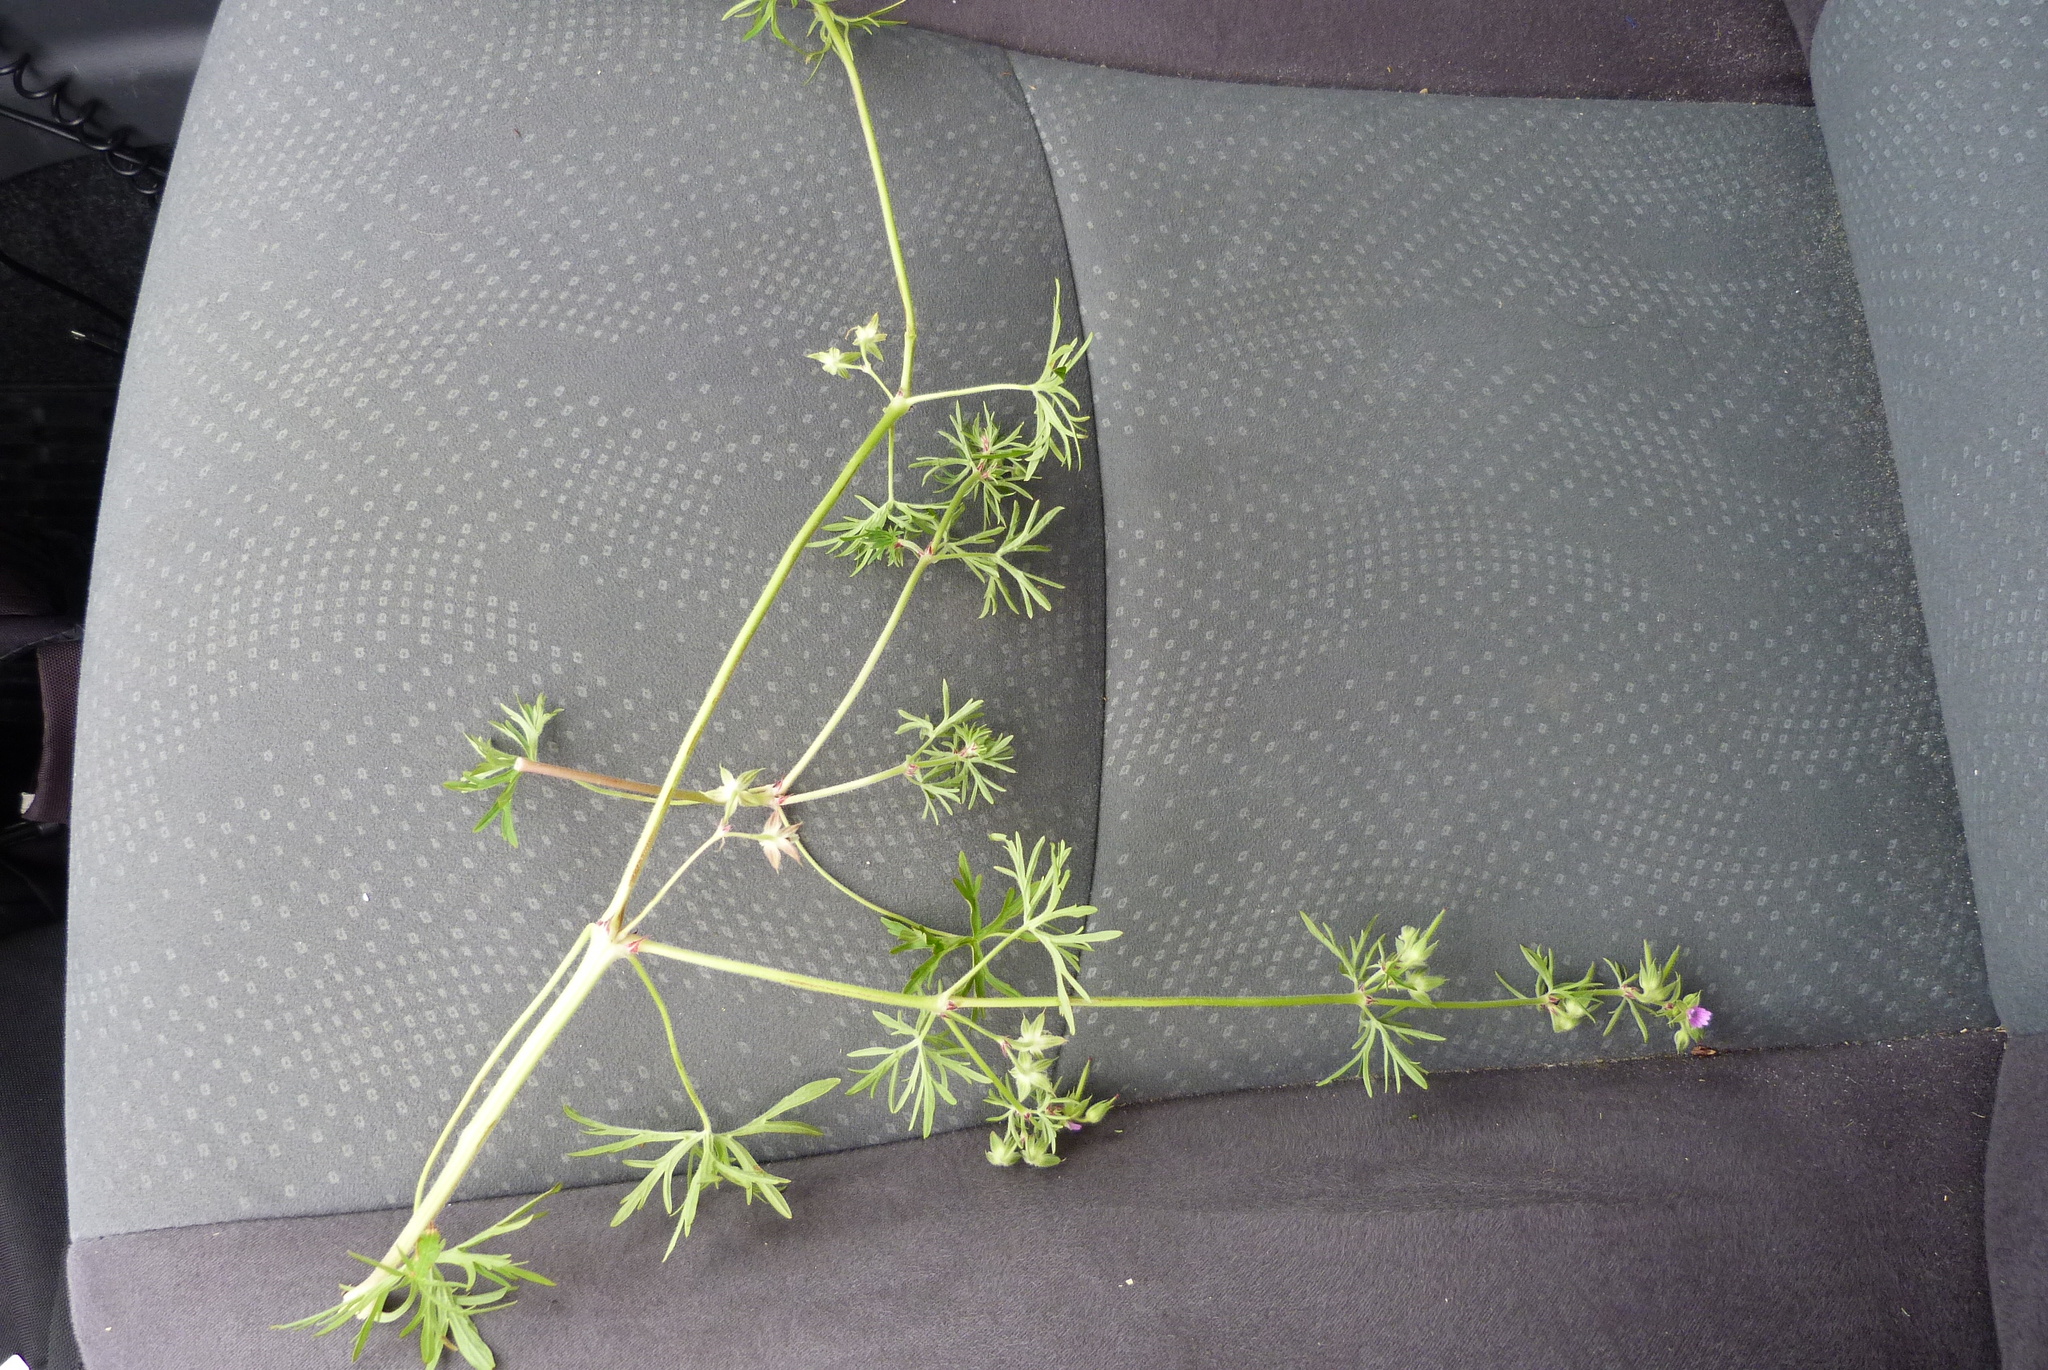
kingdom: Plantae
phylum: Tracheophyta
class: Magnoliopsida
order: Geraniales
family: Geraniaceae
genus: Geranium
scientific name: Geranium dissectum
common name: Cut-leaved crane's-bill
